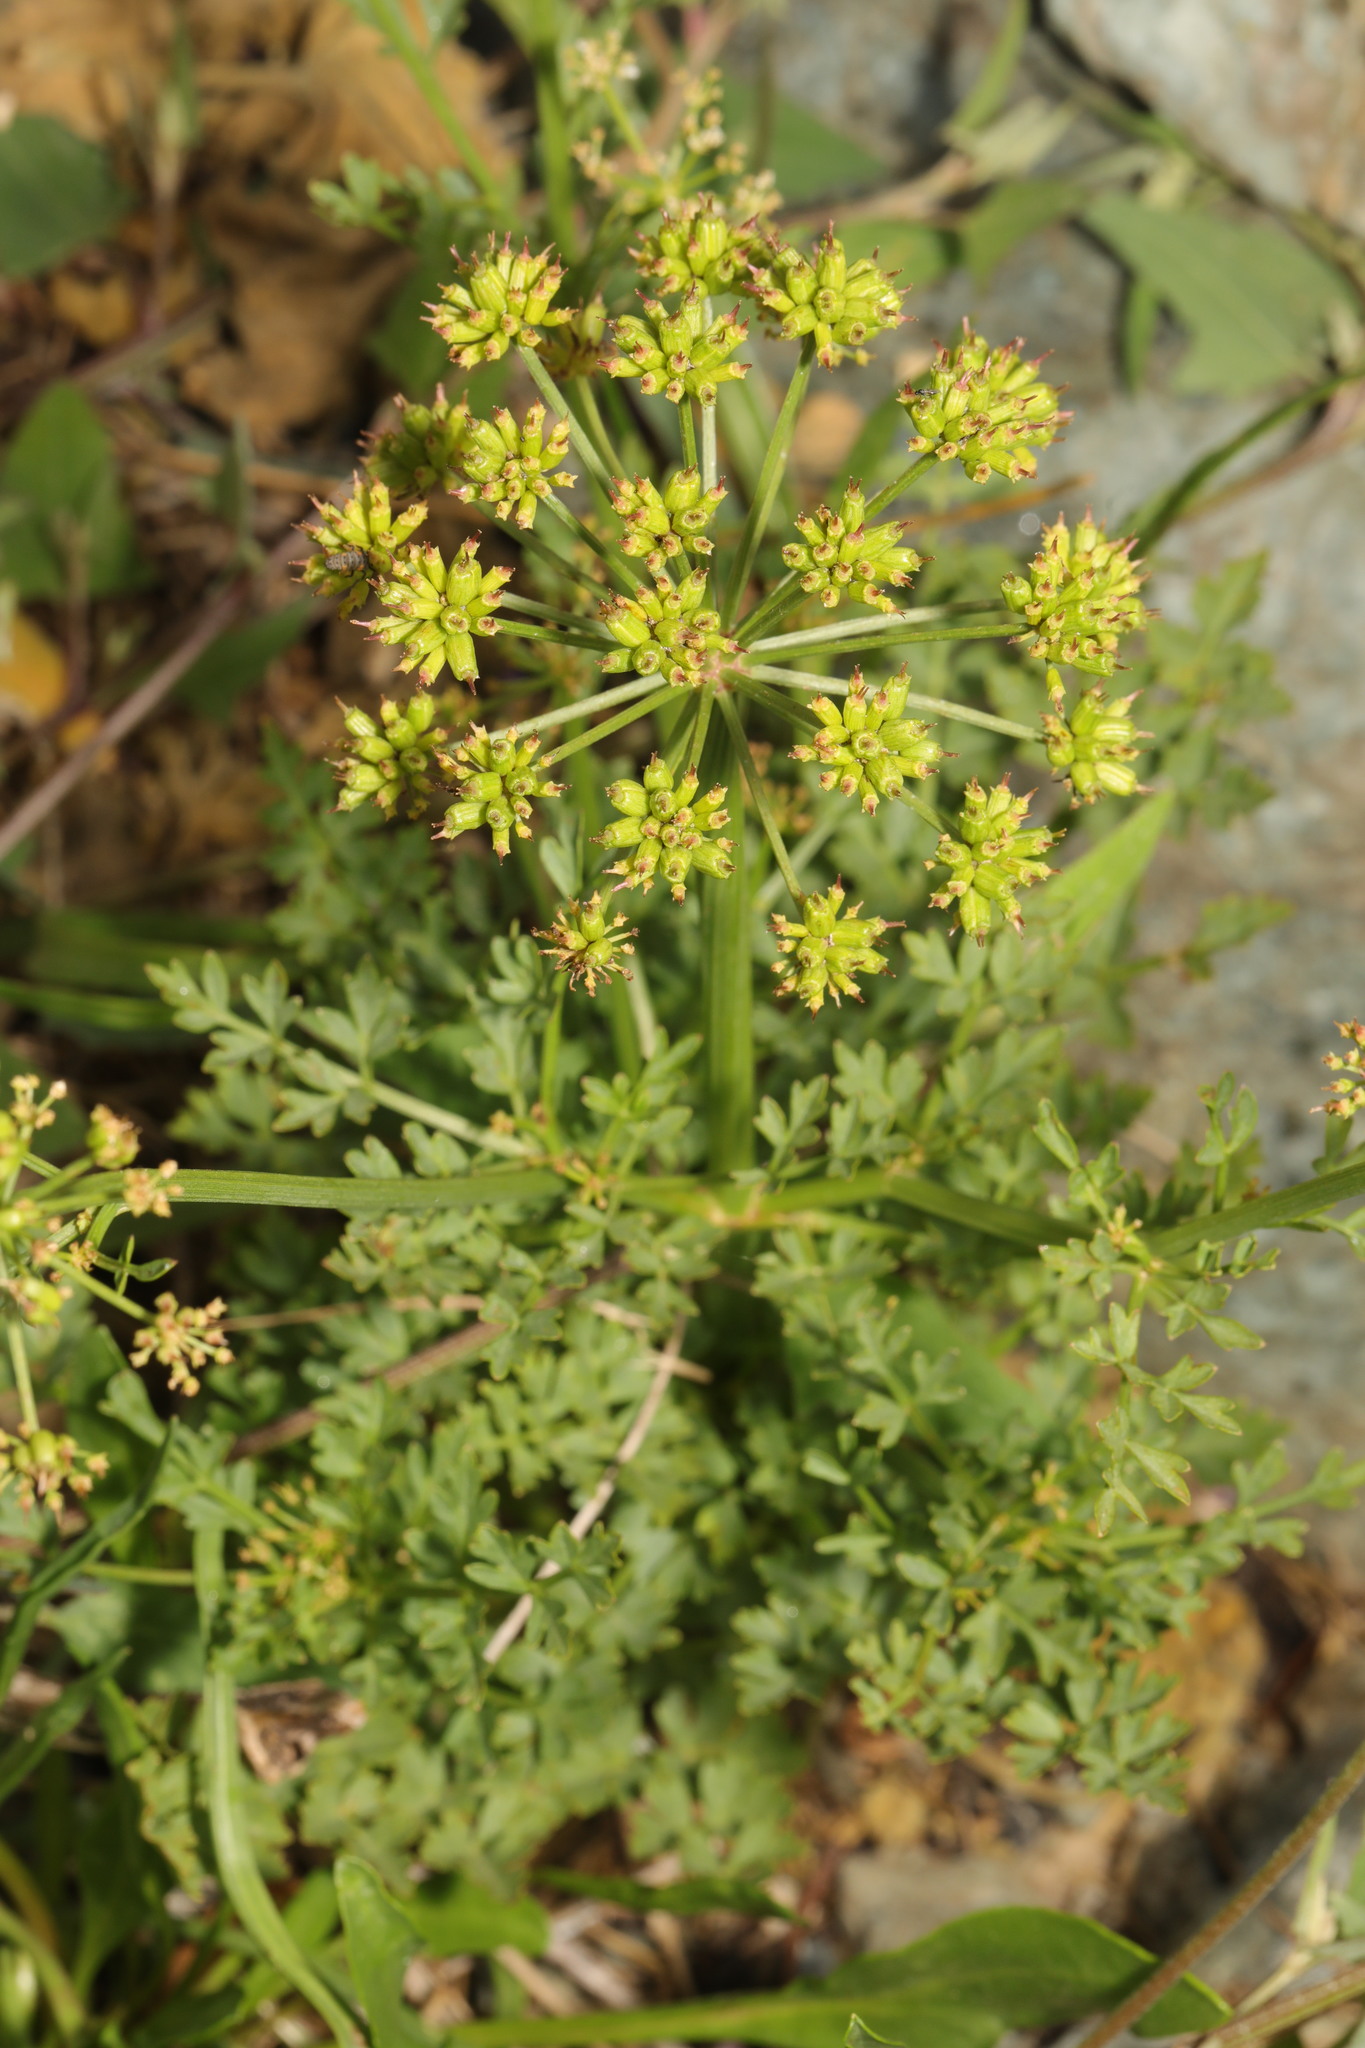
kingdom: Plantae
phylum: Tracheophyta
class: Magnoliopsida
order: Apiales
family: Apiaceae
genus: Oenanthe
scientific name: Oenanthe crocata
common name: Hemlock water-dropwort
